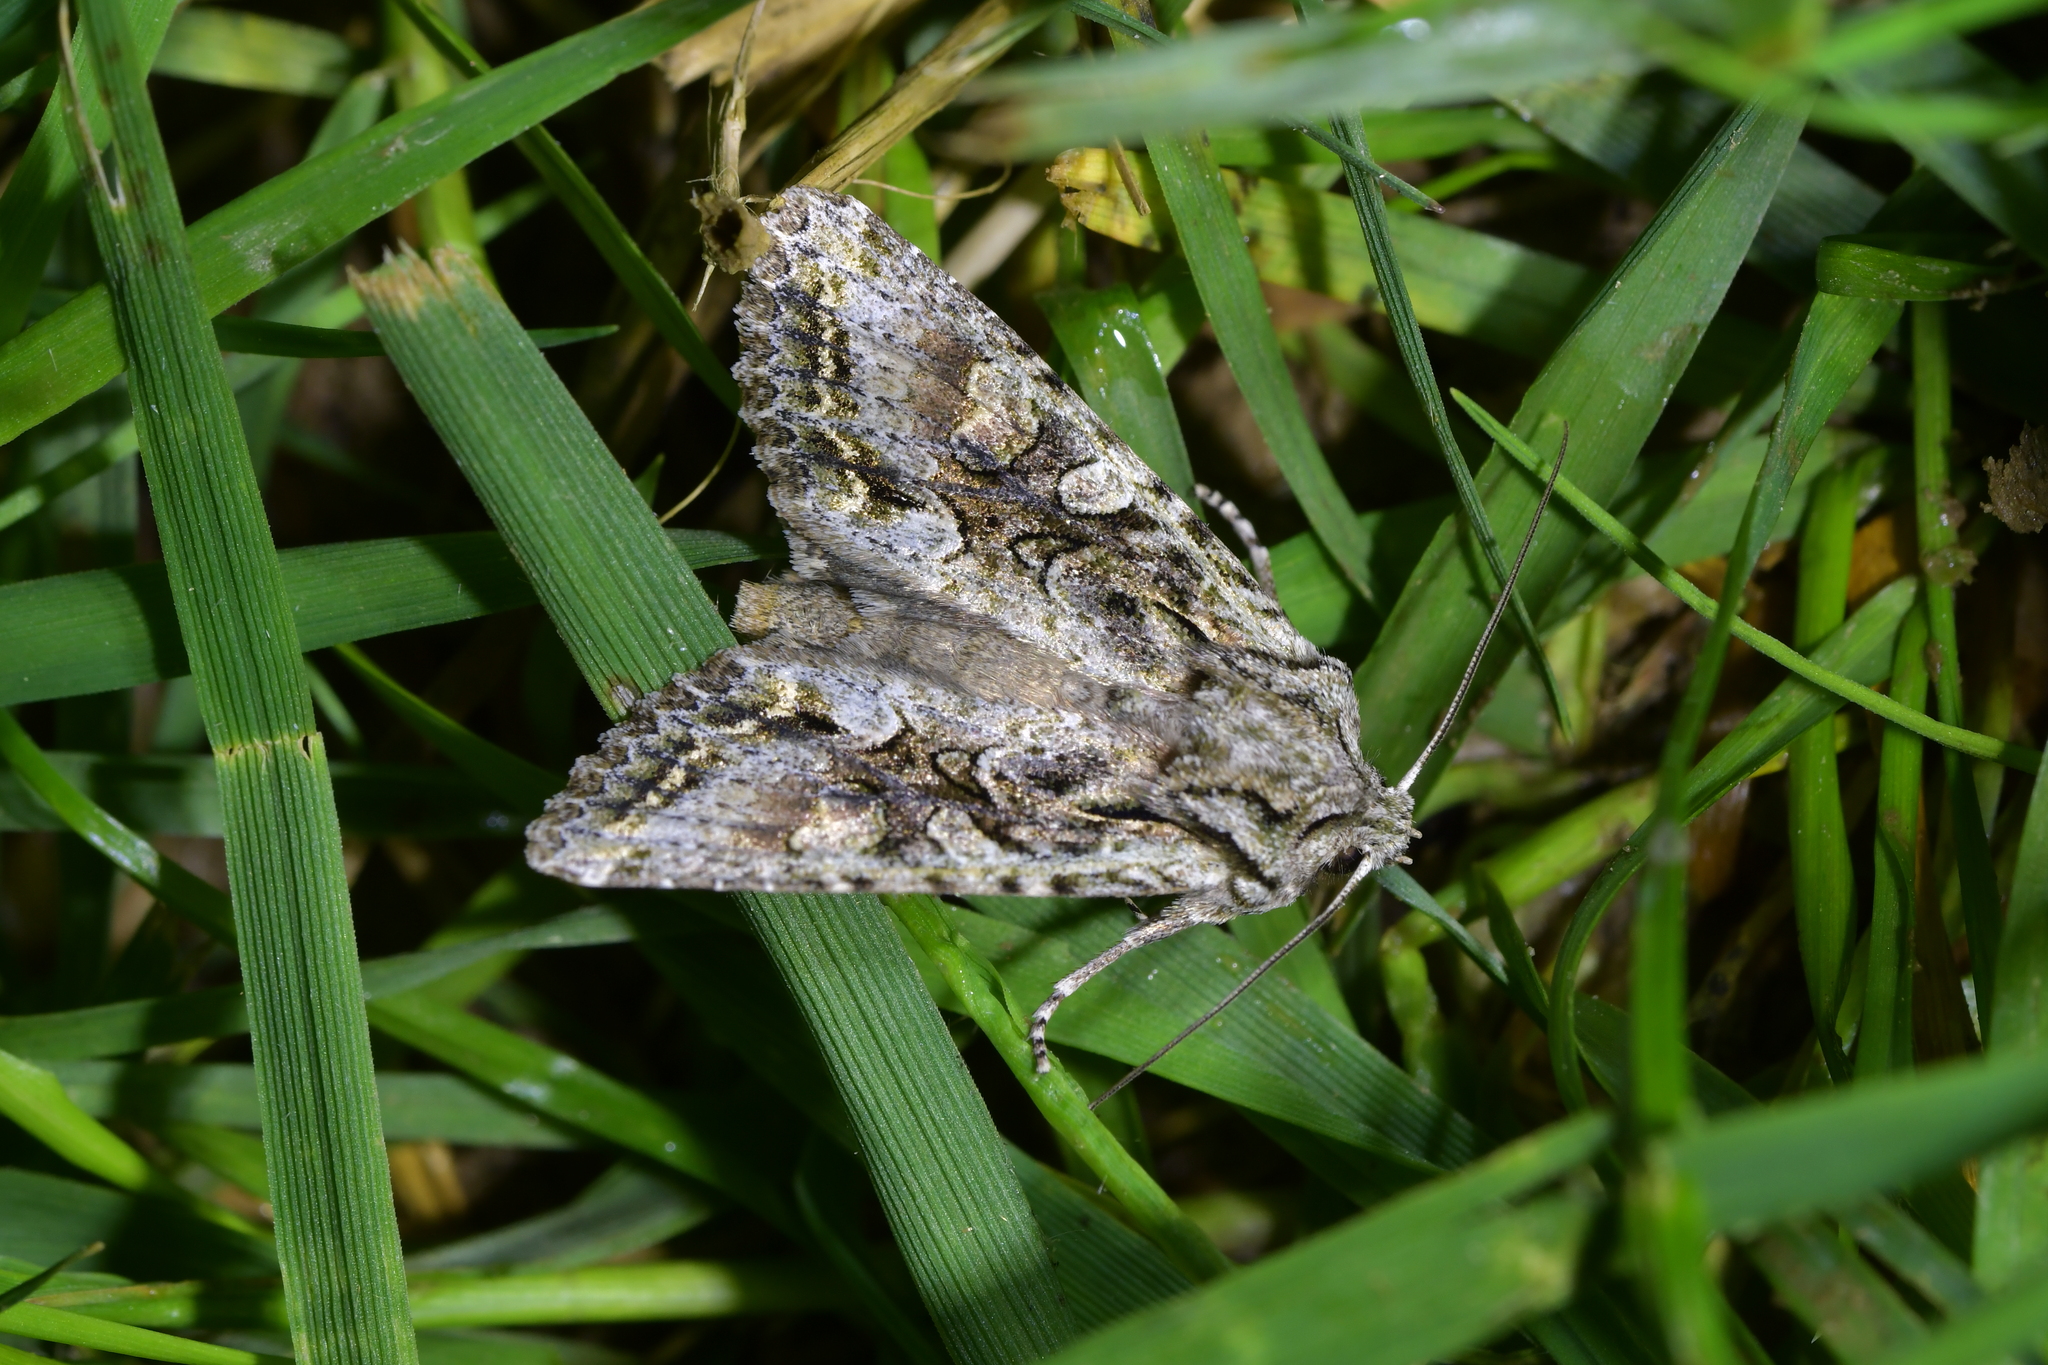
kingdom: Animalia
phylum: Arthropoda
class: Insecta
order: Lepidoptera
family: Noctuidae
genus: Ichneutica
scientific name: Ichneutica mutans
